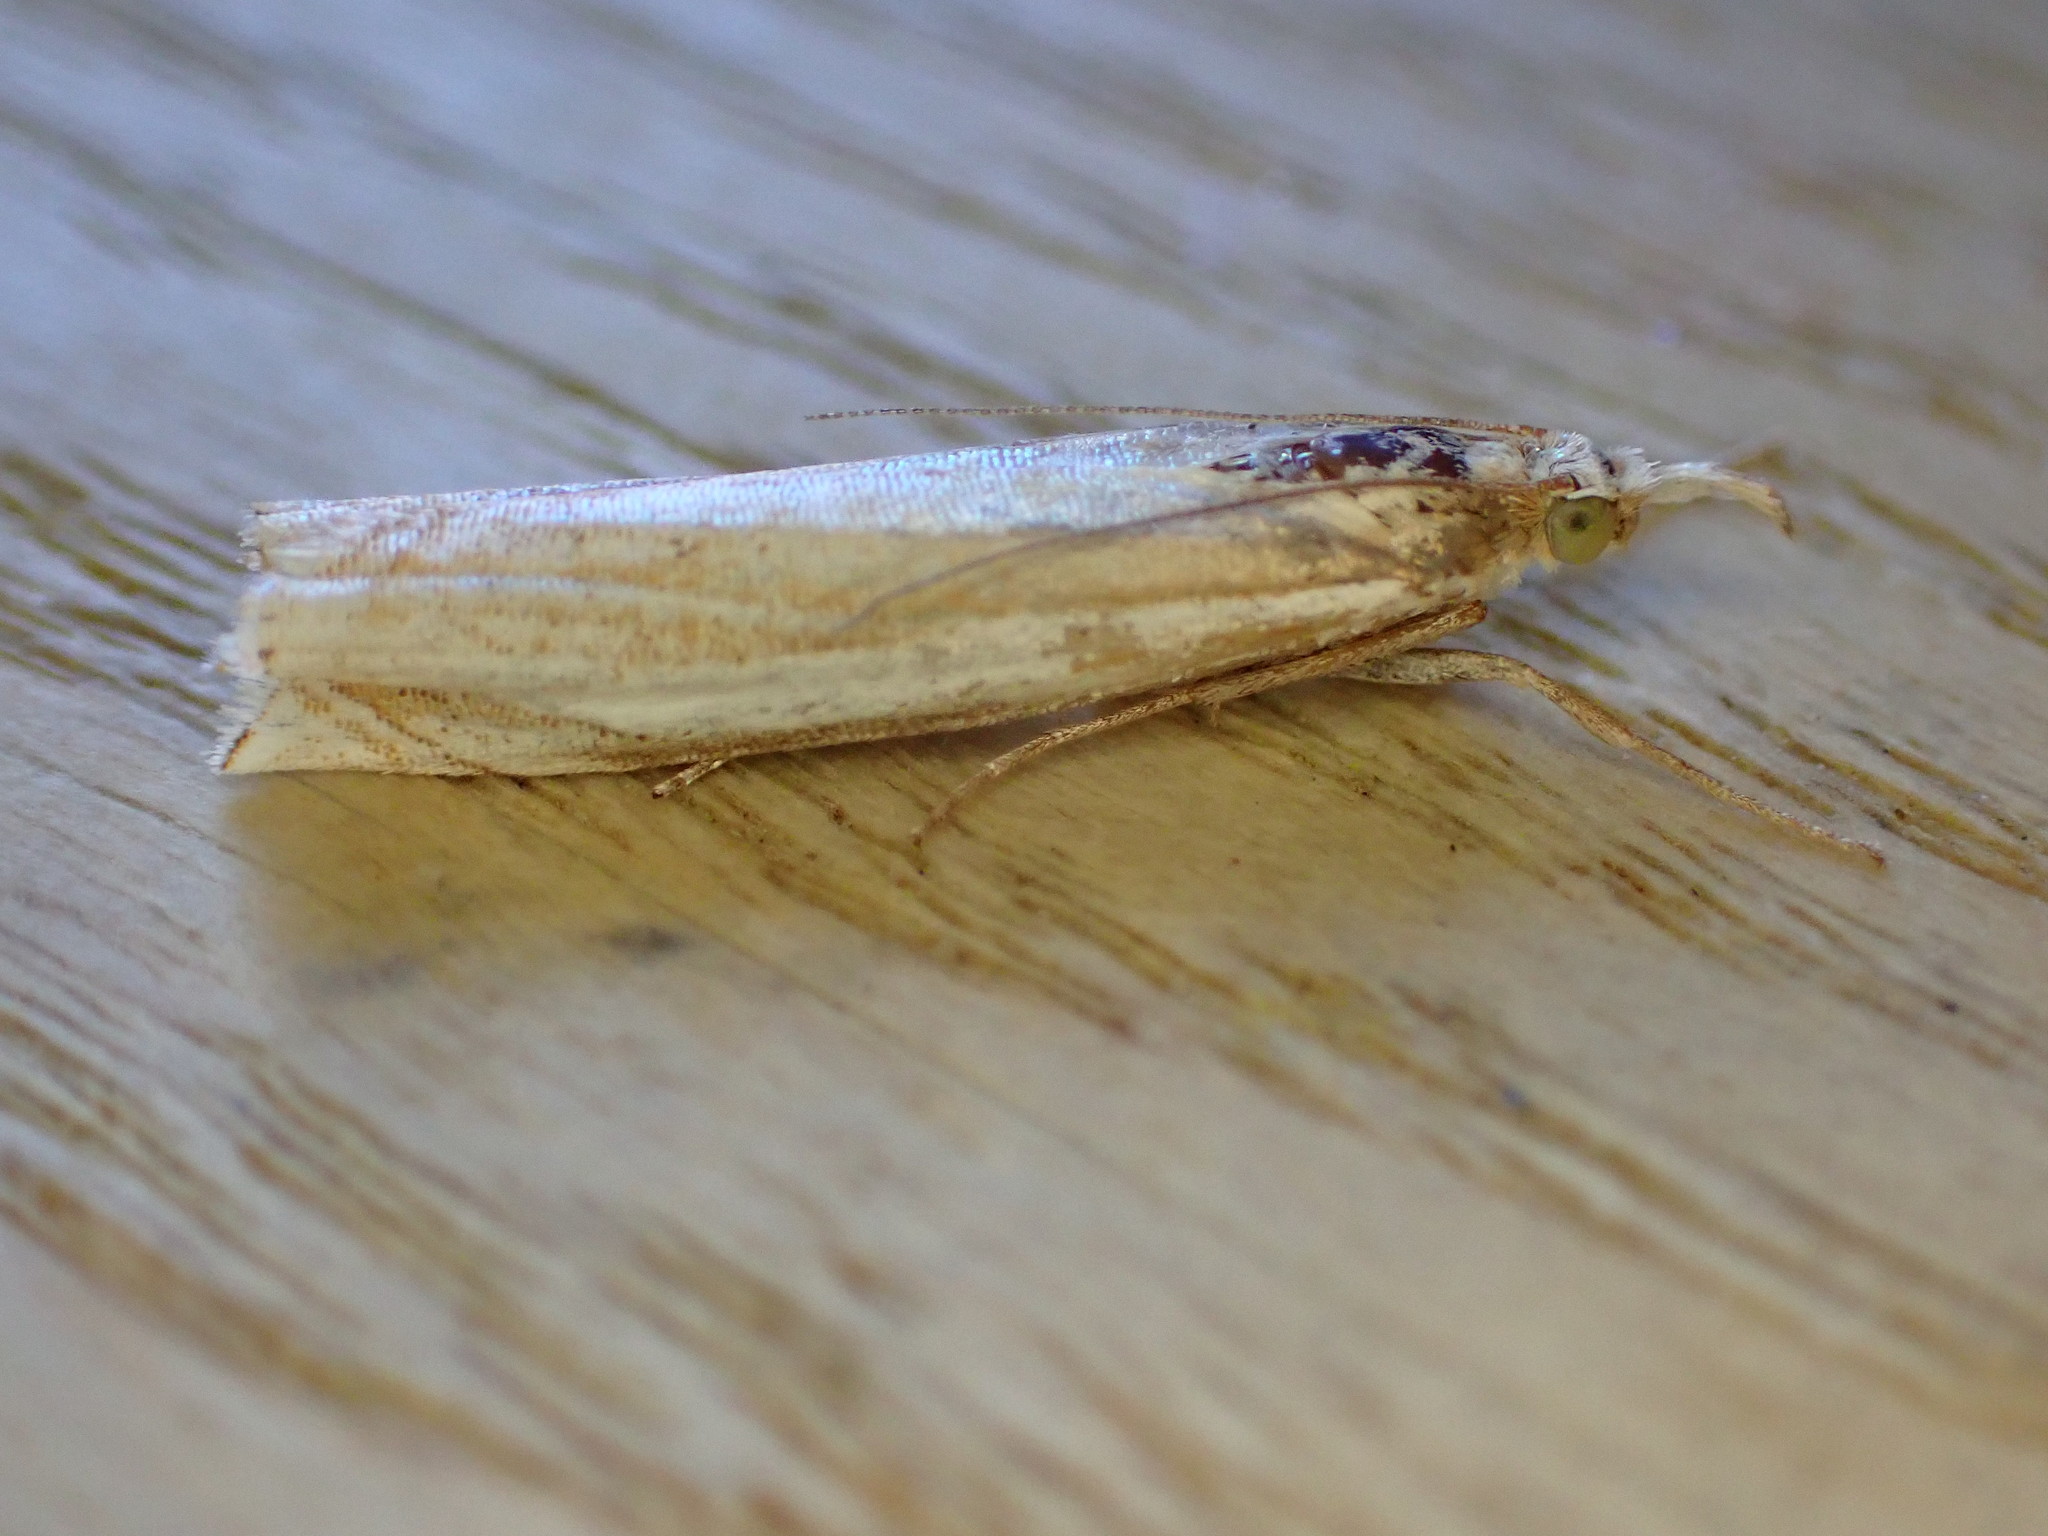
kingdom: Animalia
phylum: Arthropoda
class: Insecta
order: Lepidoptera
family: Crambidae
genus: Crambus
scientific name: Crambus pascuella
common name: Inlaid grass-veneer
